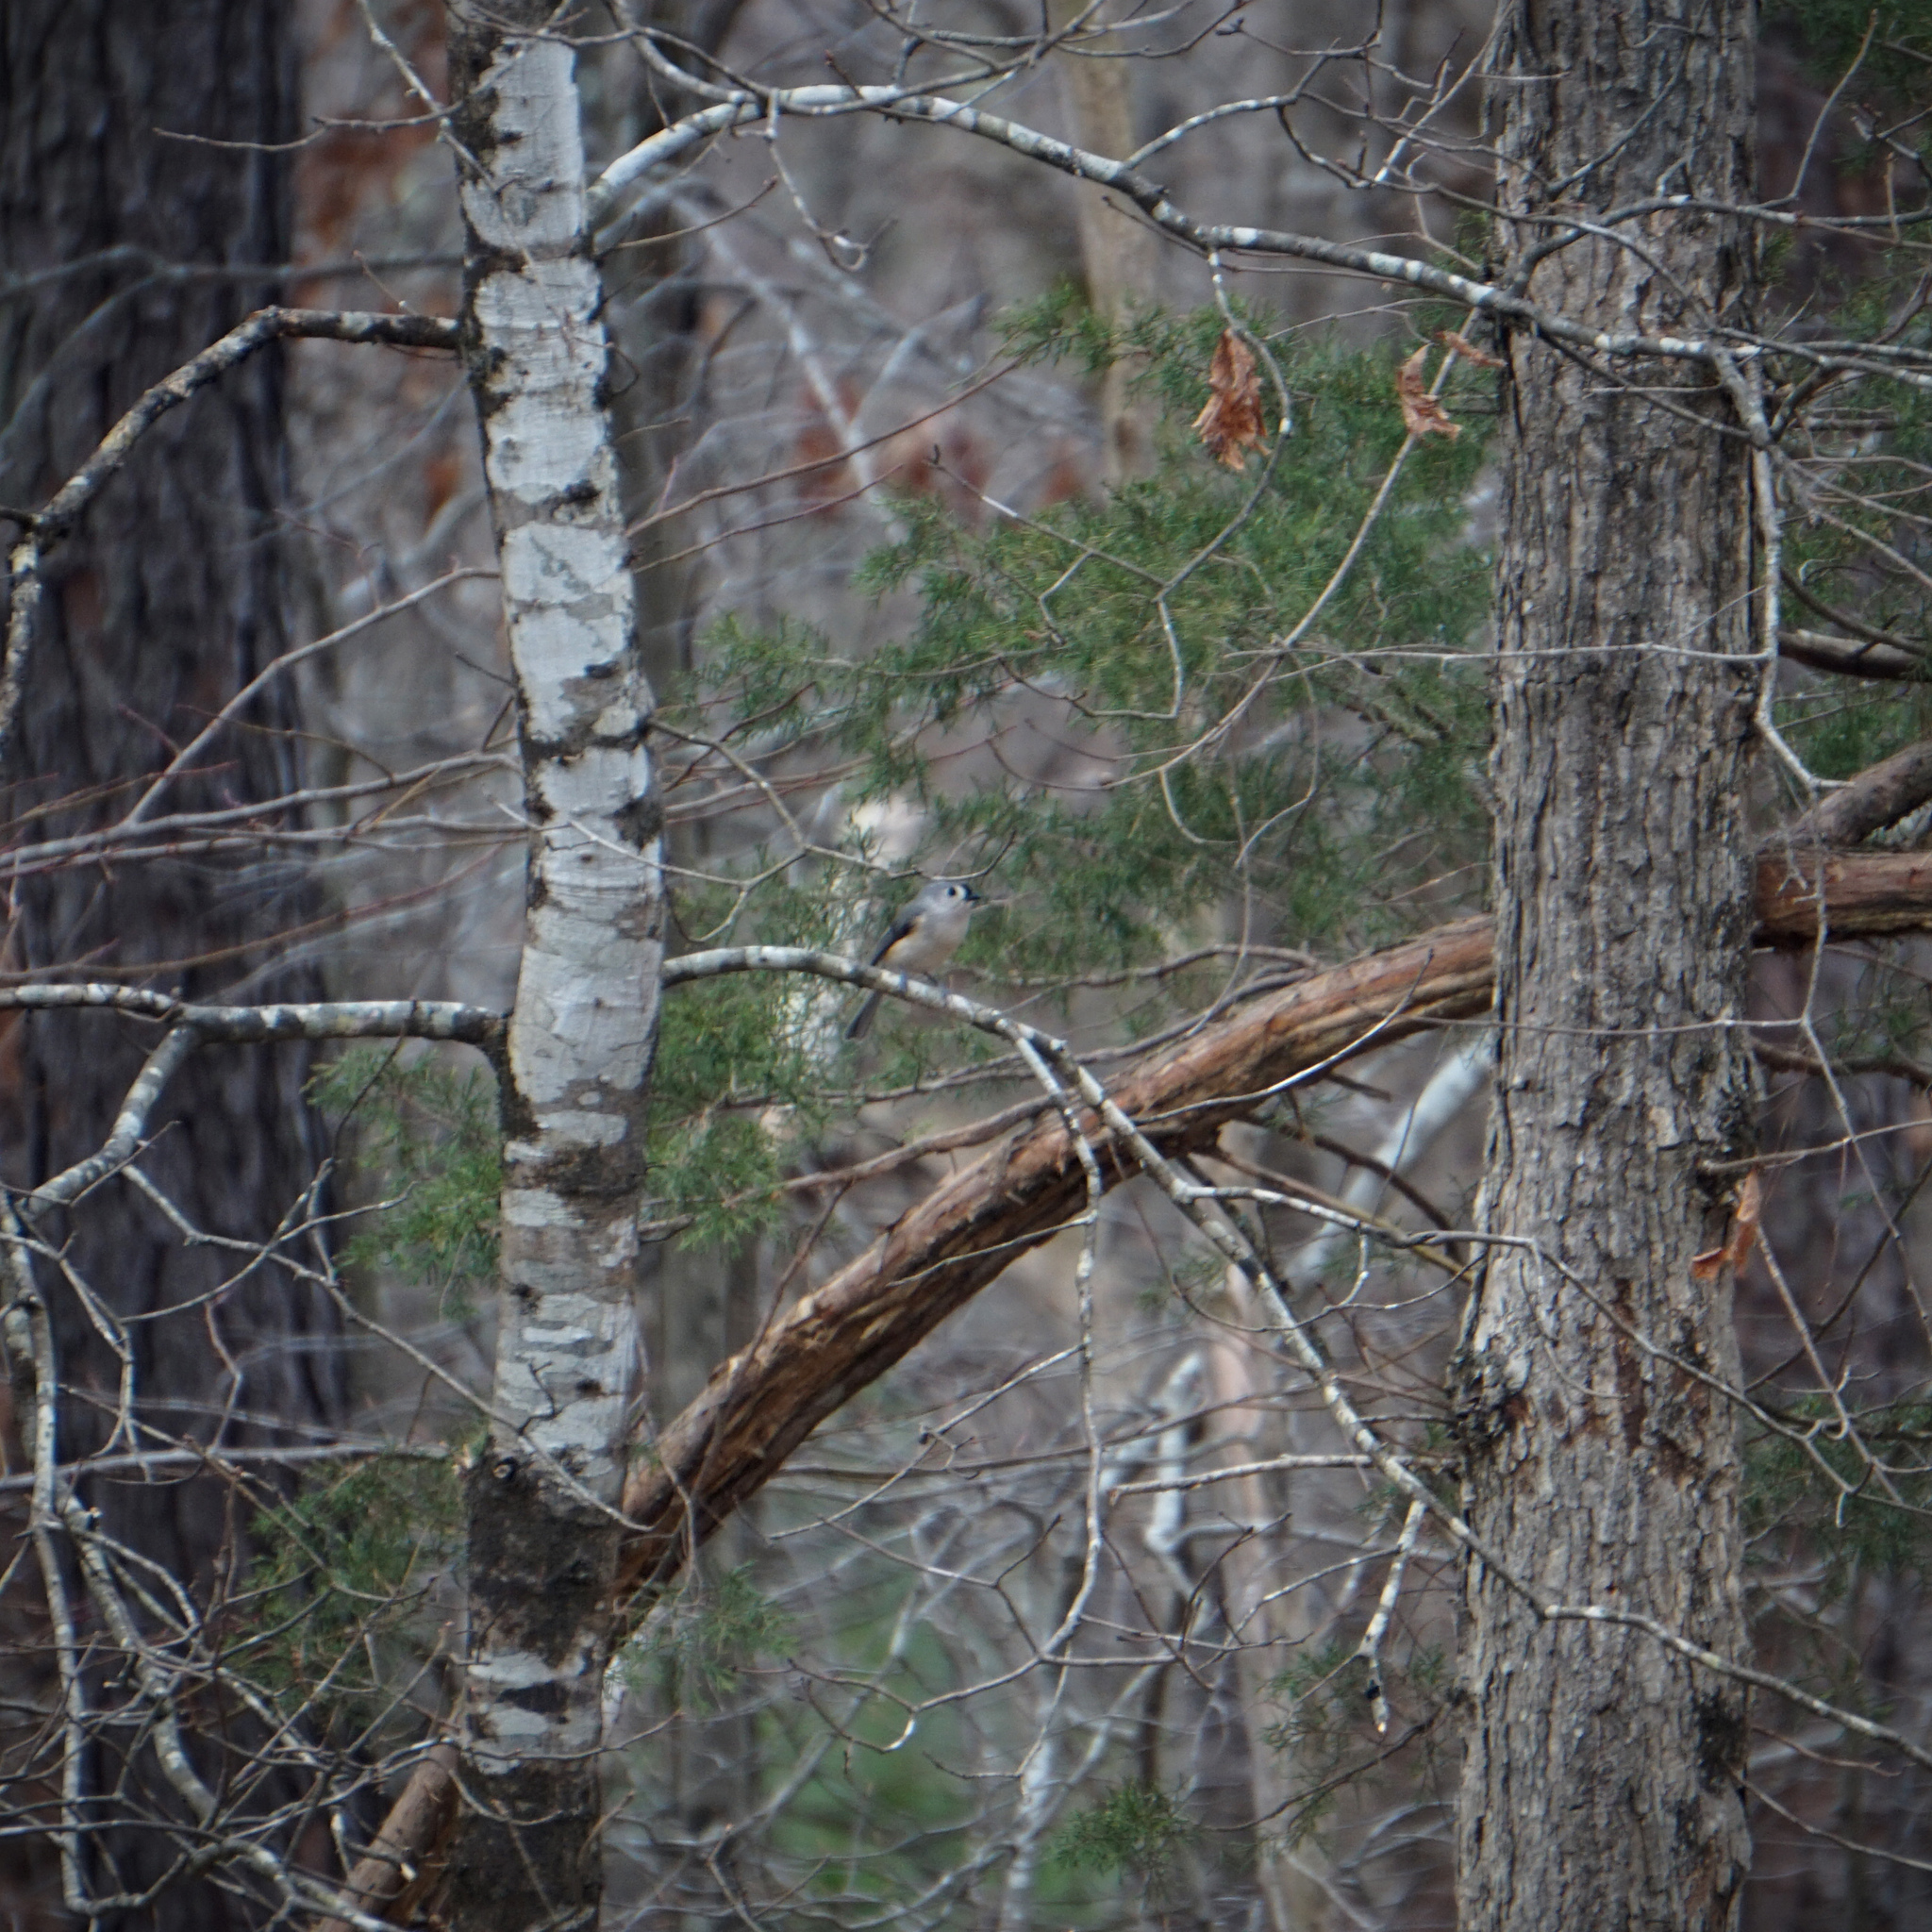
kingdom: Animalia
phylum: Chordata
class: Aves
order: Passeriformes
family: Paridae
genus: Baeolophus
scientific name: Baeolophus bicolor
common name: Tufted titmouse
